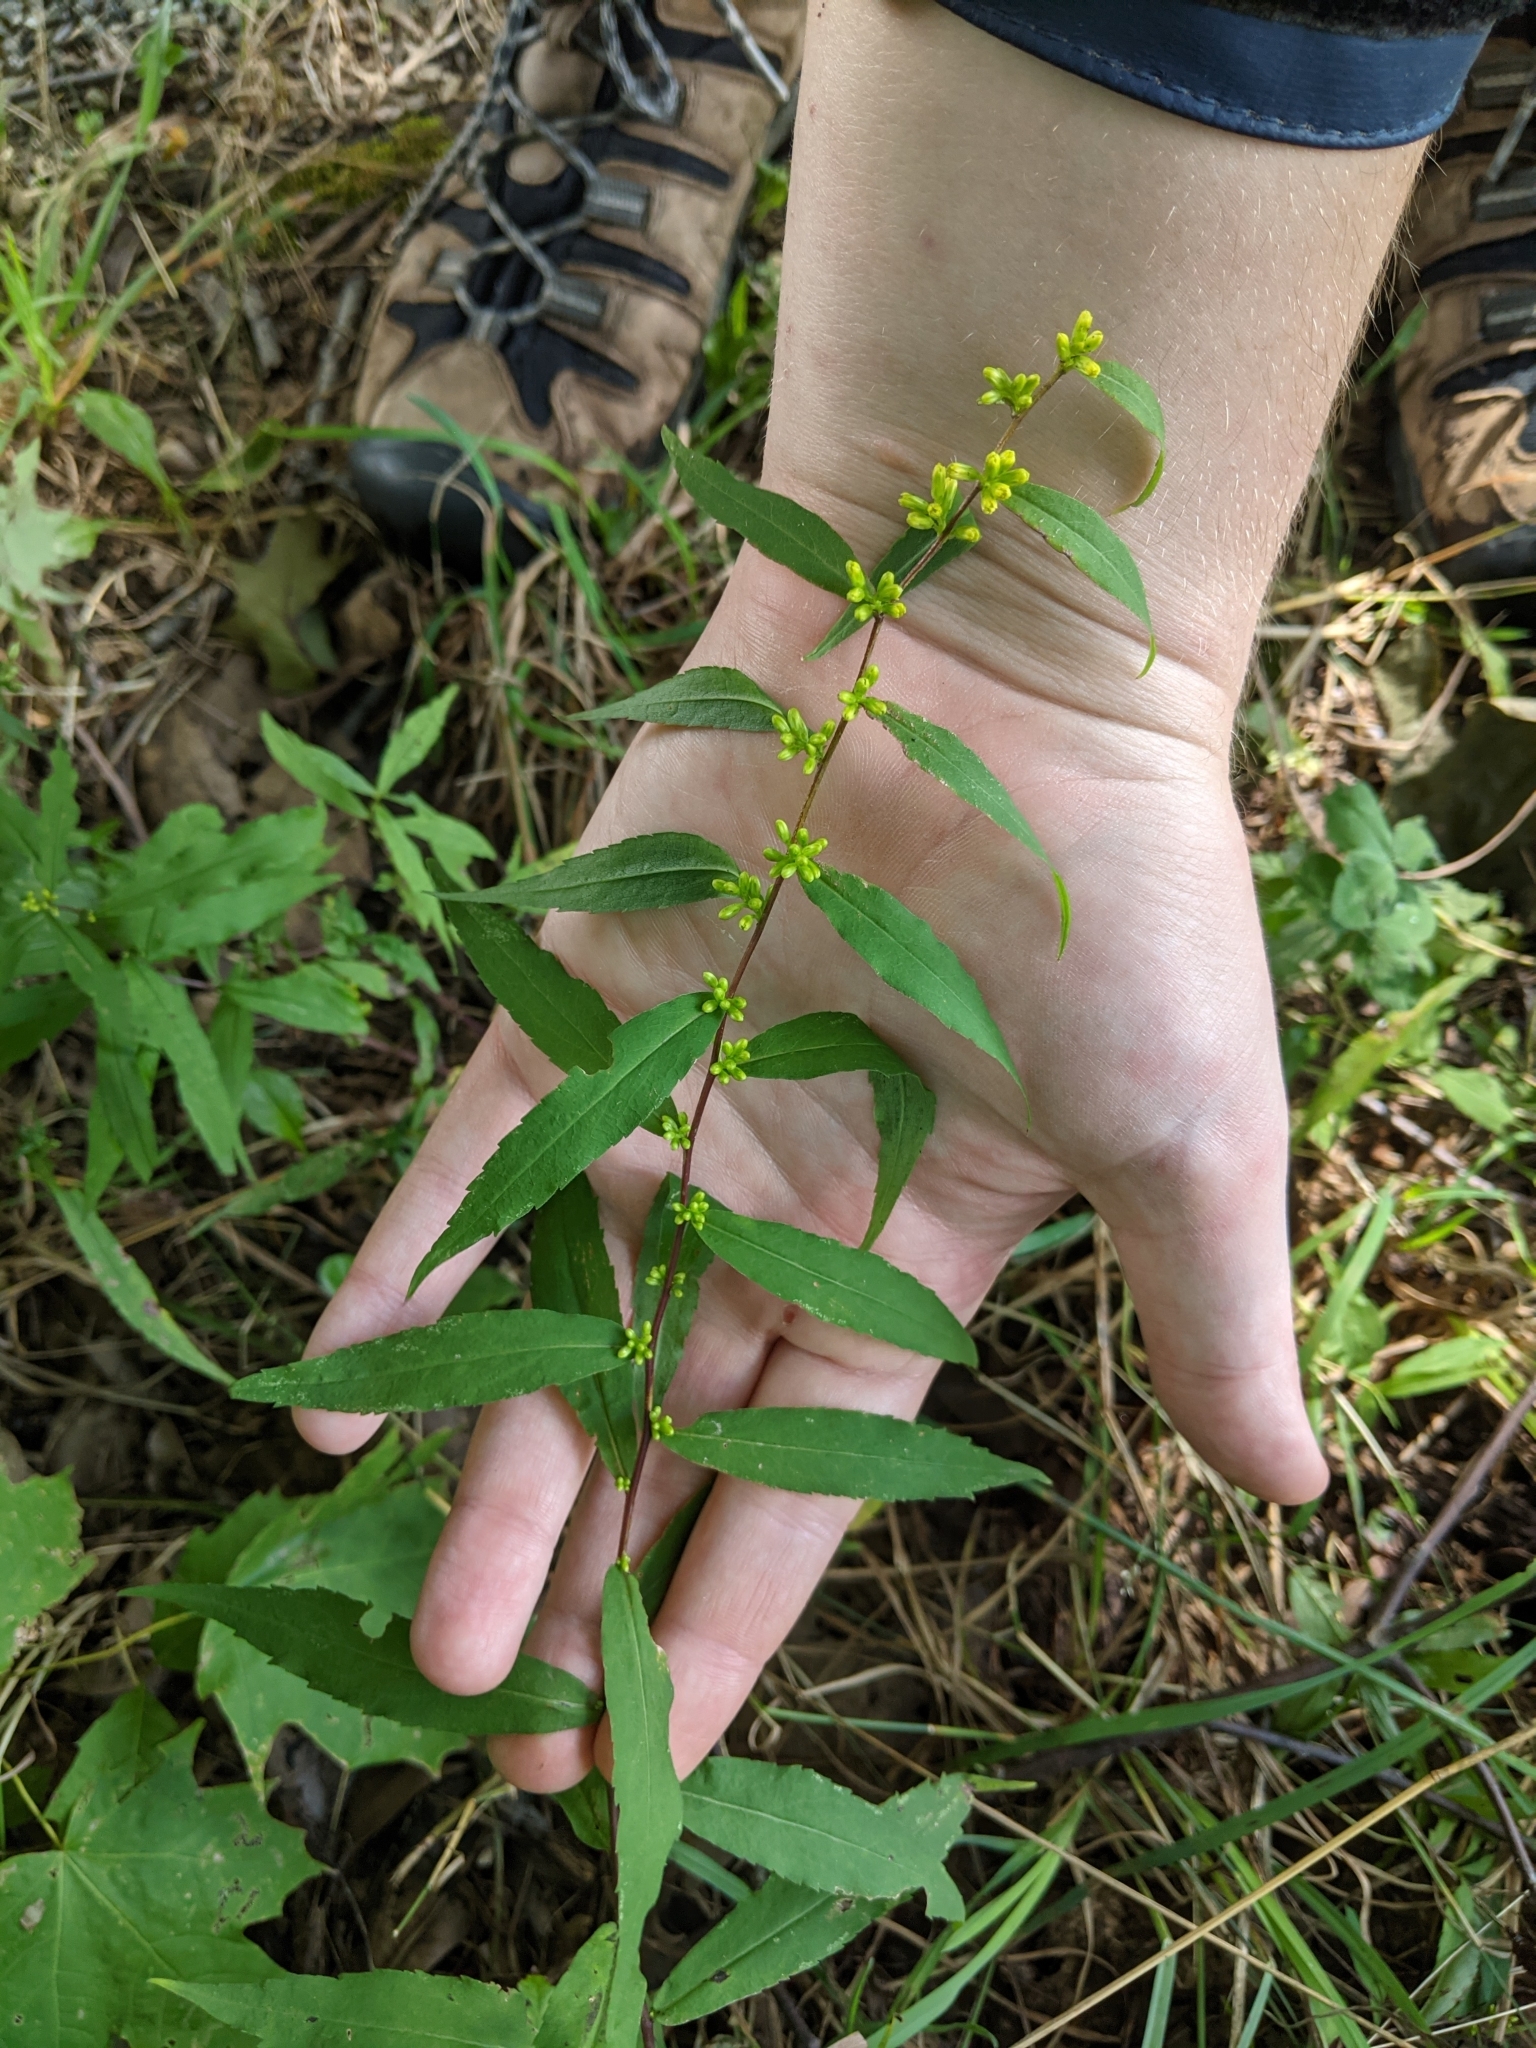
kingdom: Plantae
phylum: Tracheophyta
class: Magnoliopsida
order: Asterales
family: Asteraceae
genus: Solidago
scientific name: Solidago caesia
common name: Woodland goldenrod
